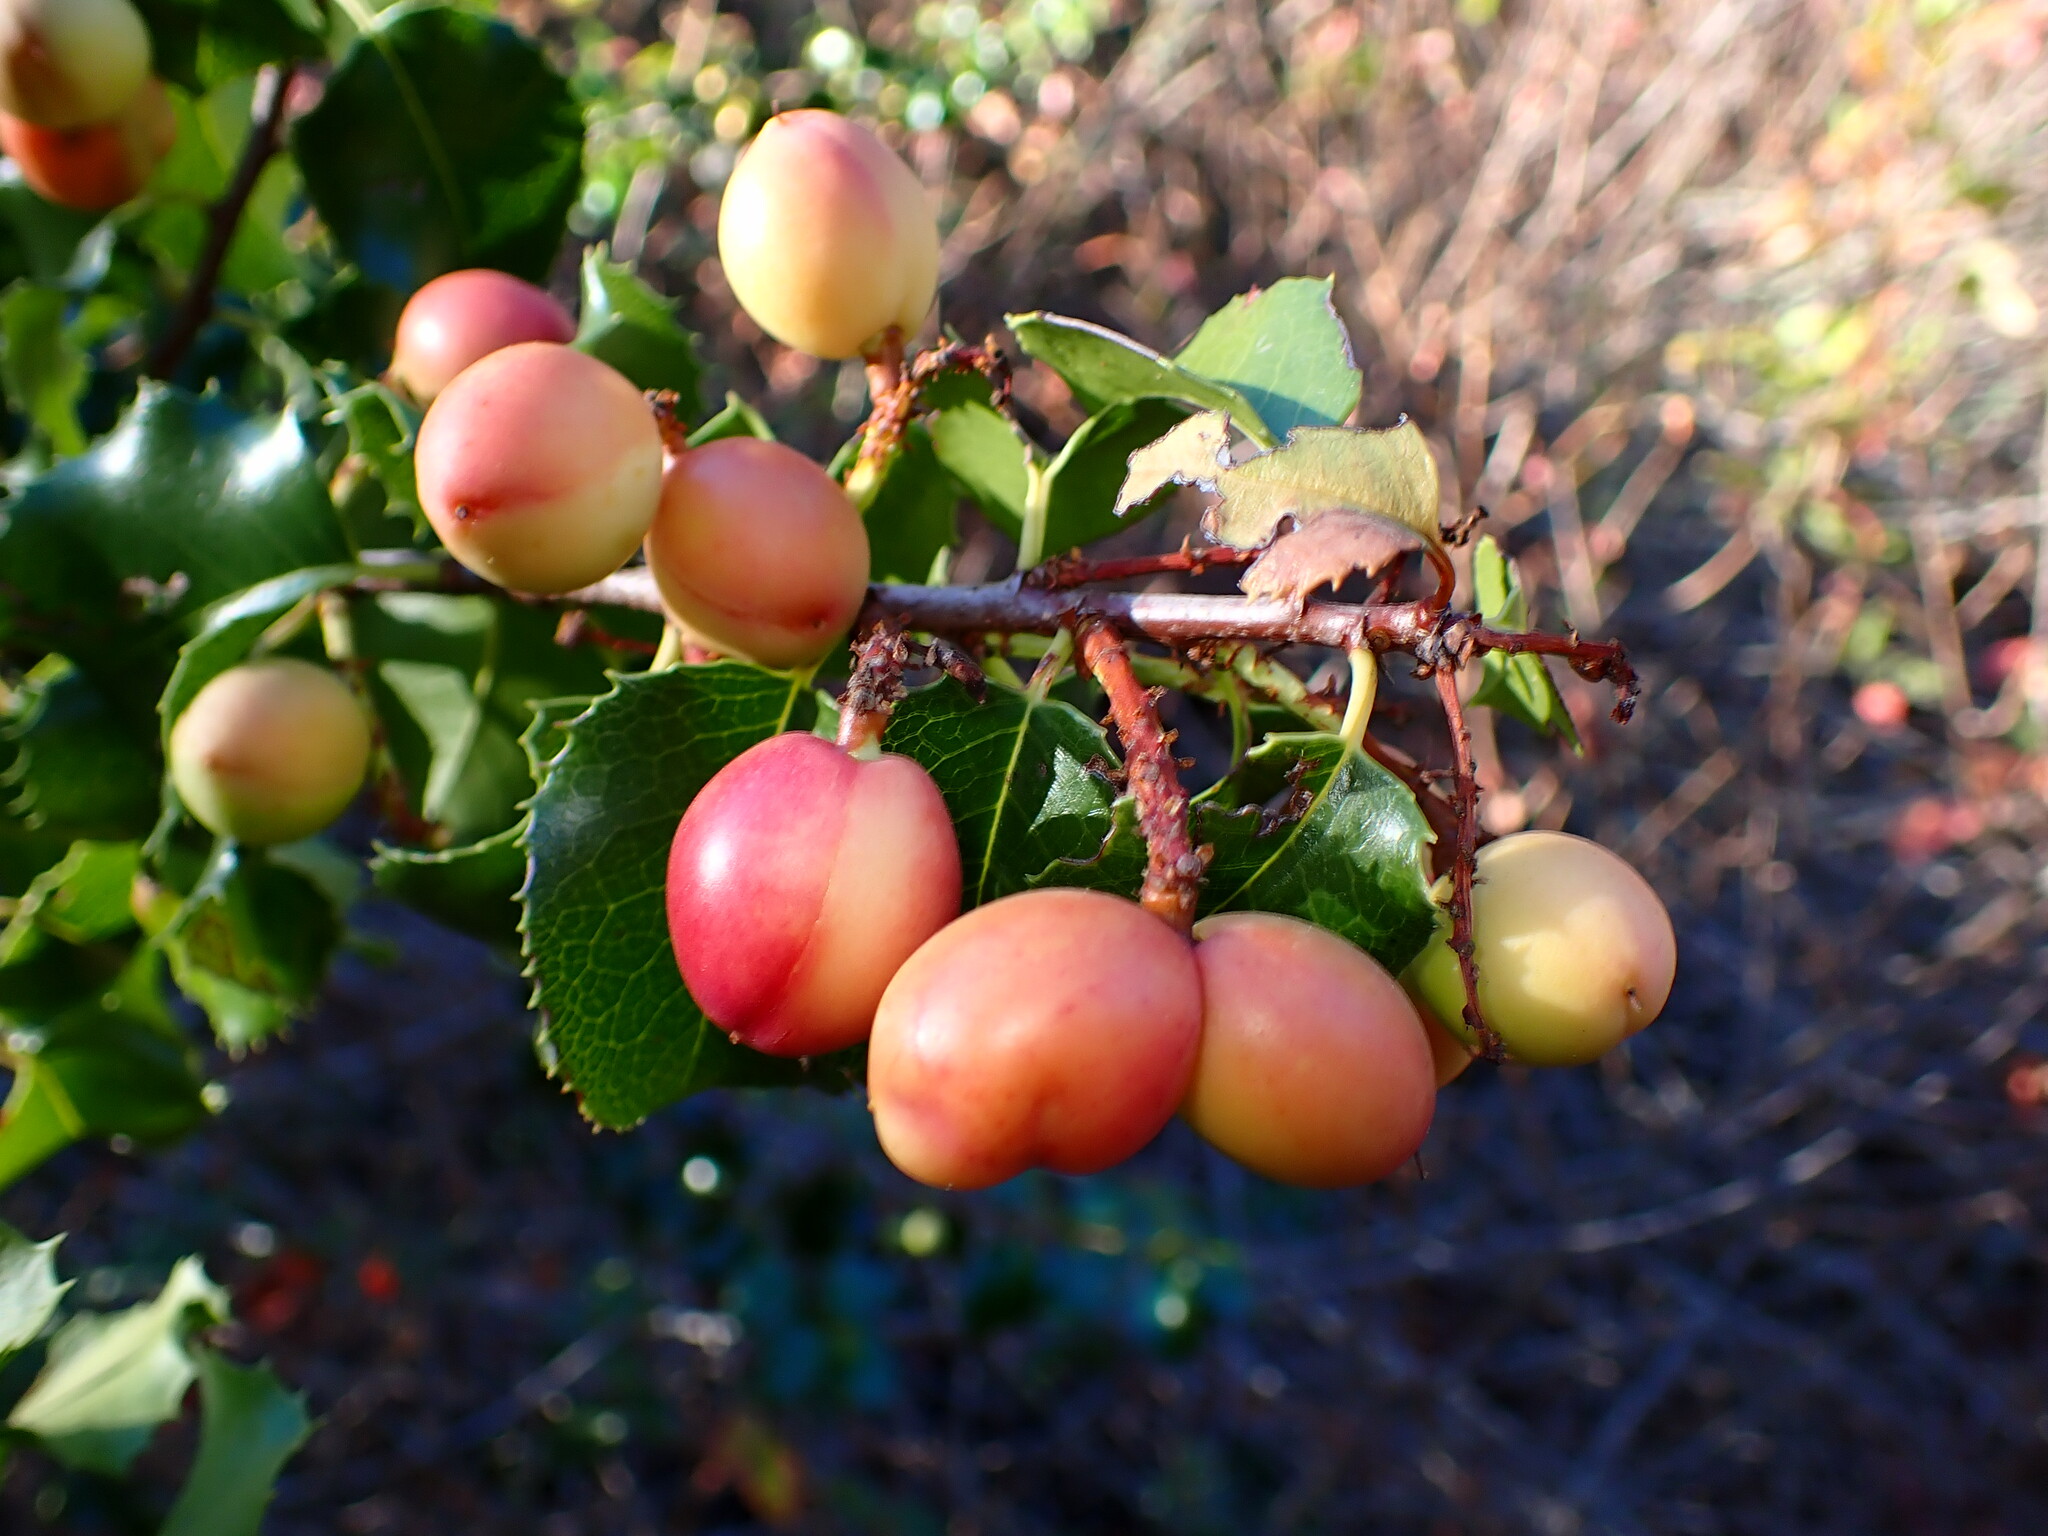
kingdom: Plantae
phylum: Tracheophyta
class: Magnoliopsida
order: Rosales
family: Rosaceae
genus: Prunus
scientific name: Prunus ilicifolia
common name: Hollyleaf cherry
